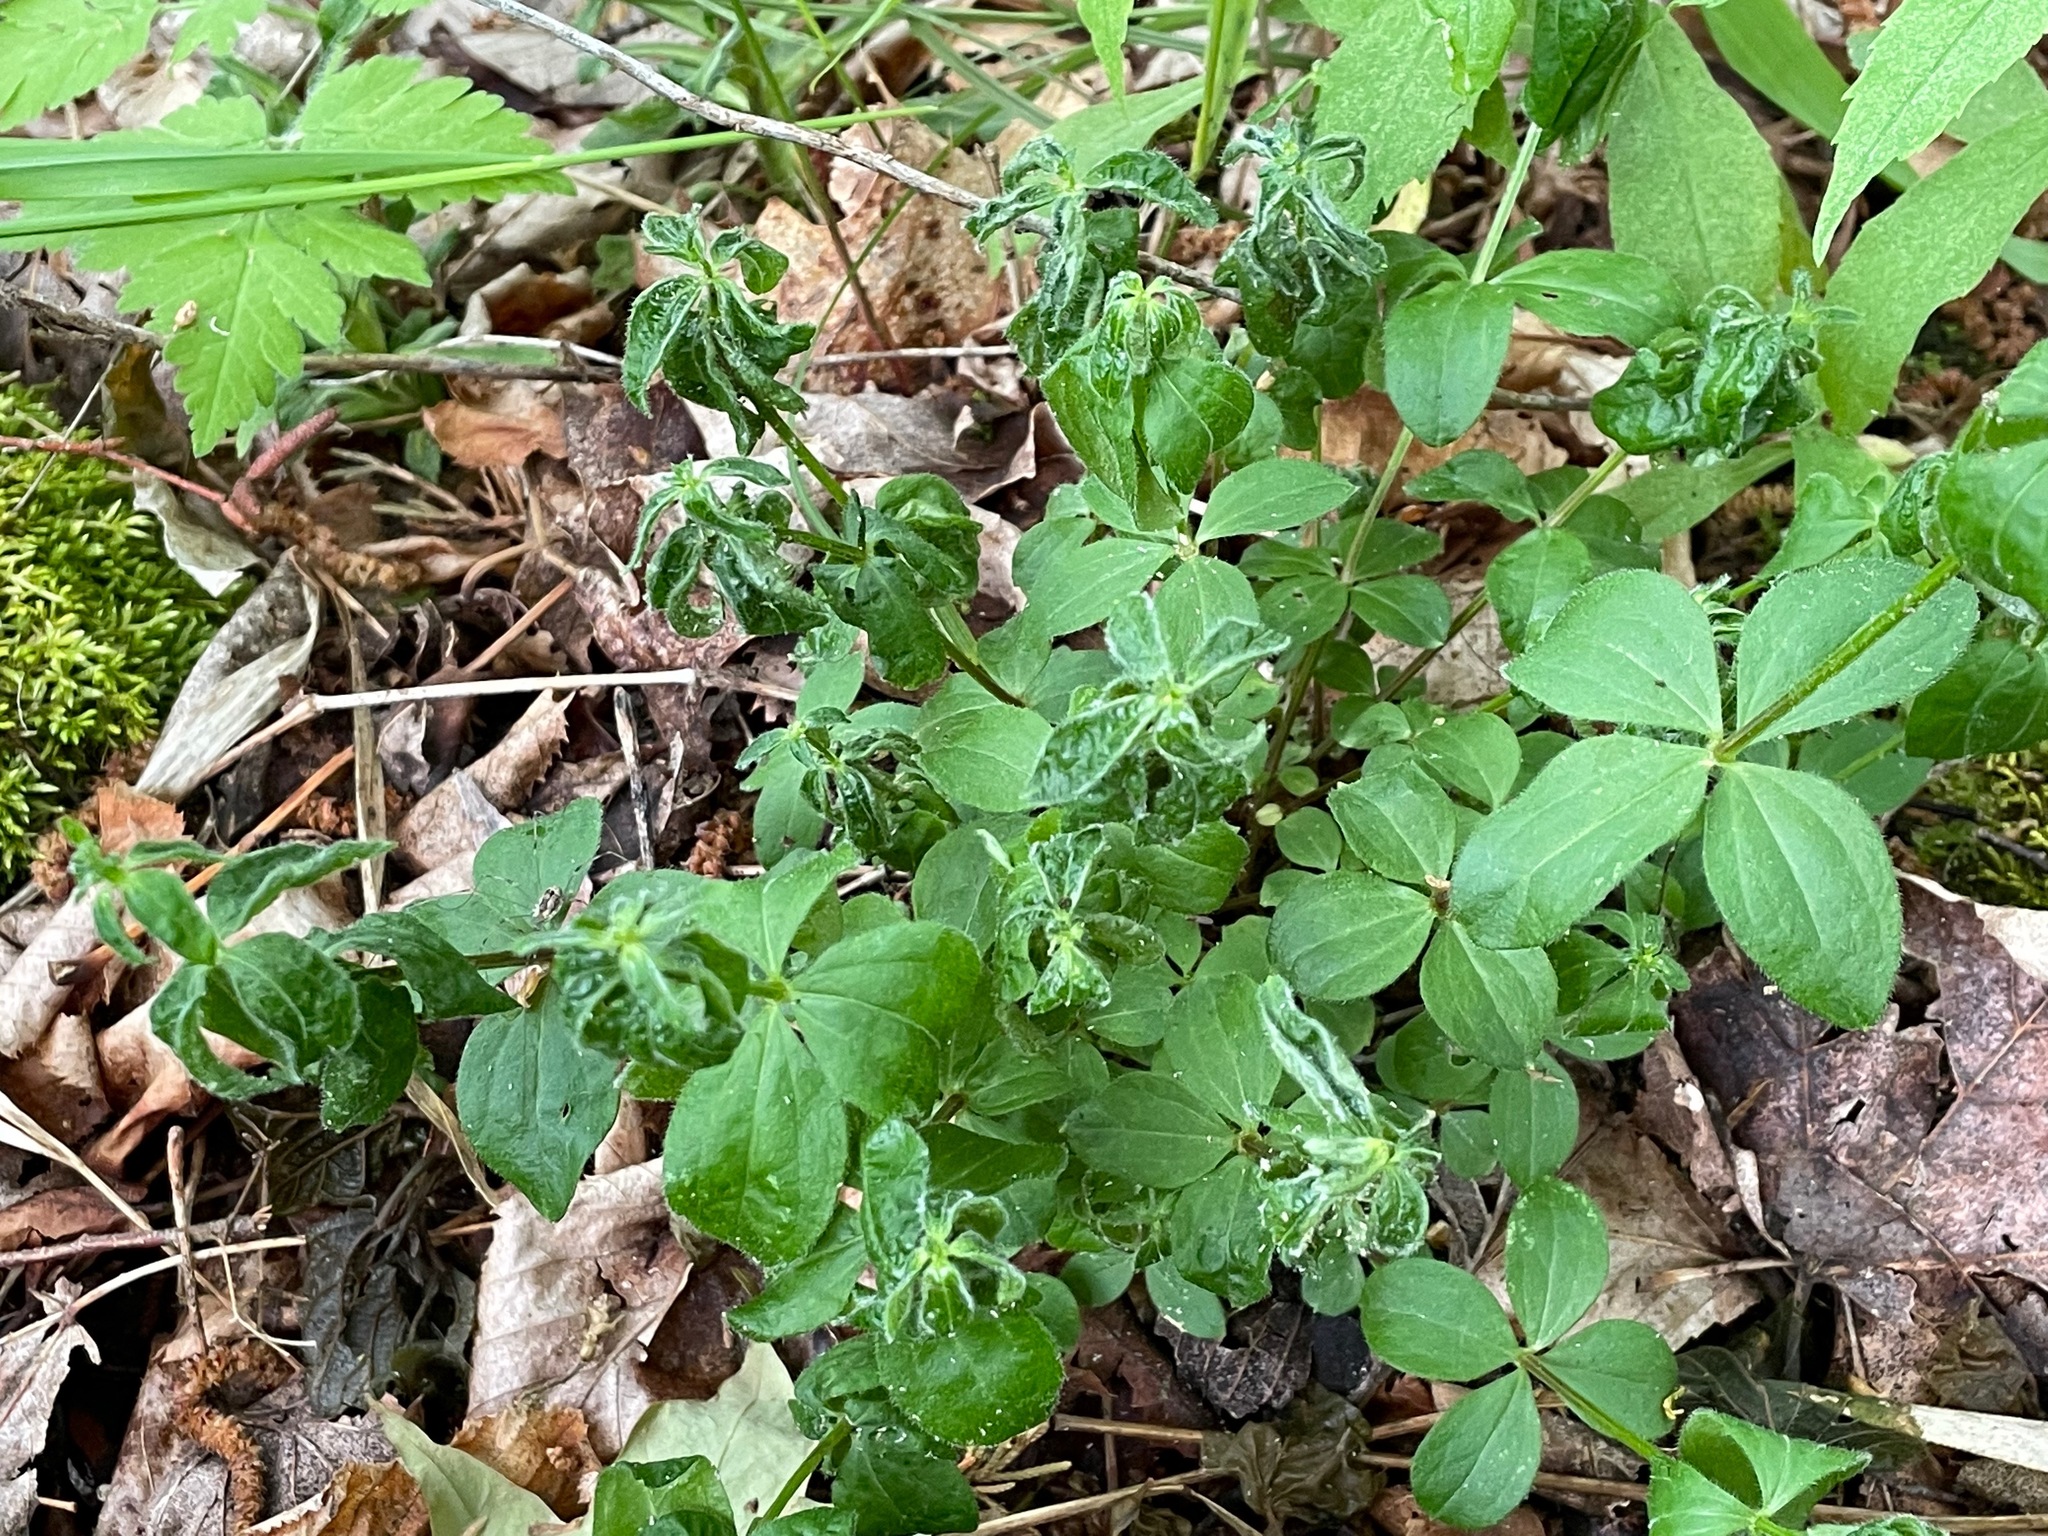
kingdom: Plantae
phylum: Tracheophyta
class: Magnoliopsida
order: Gentianales
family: Rubiaceae
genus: Galium
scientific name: Galium circaezans
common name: Forest bedstraw
